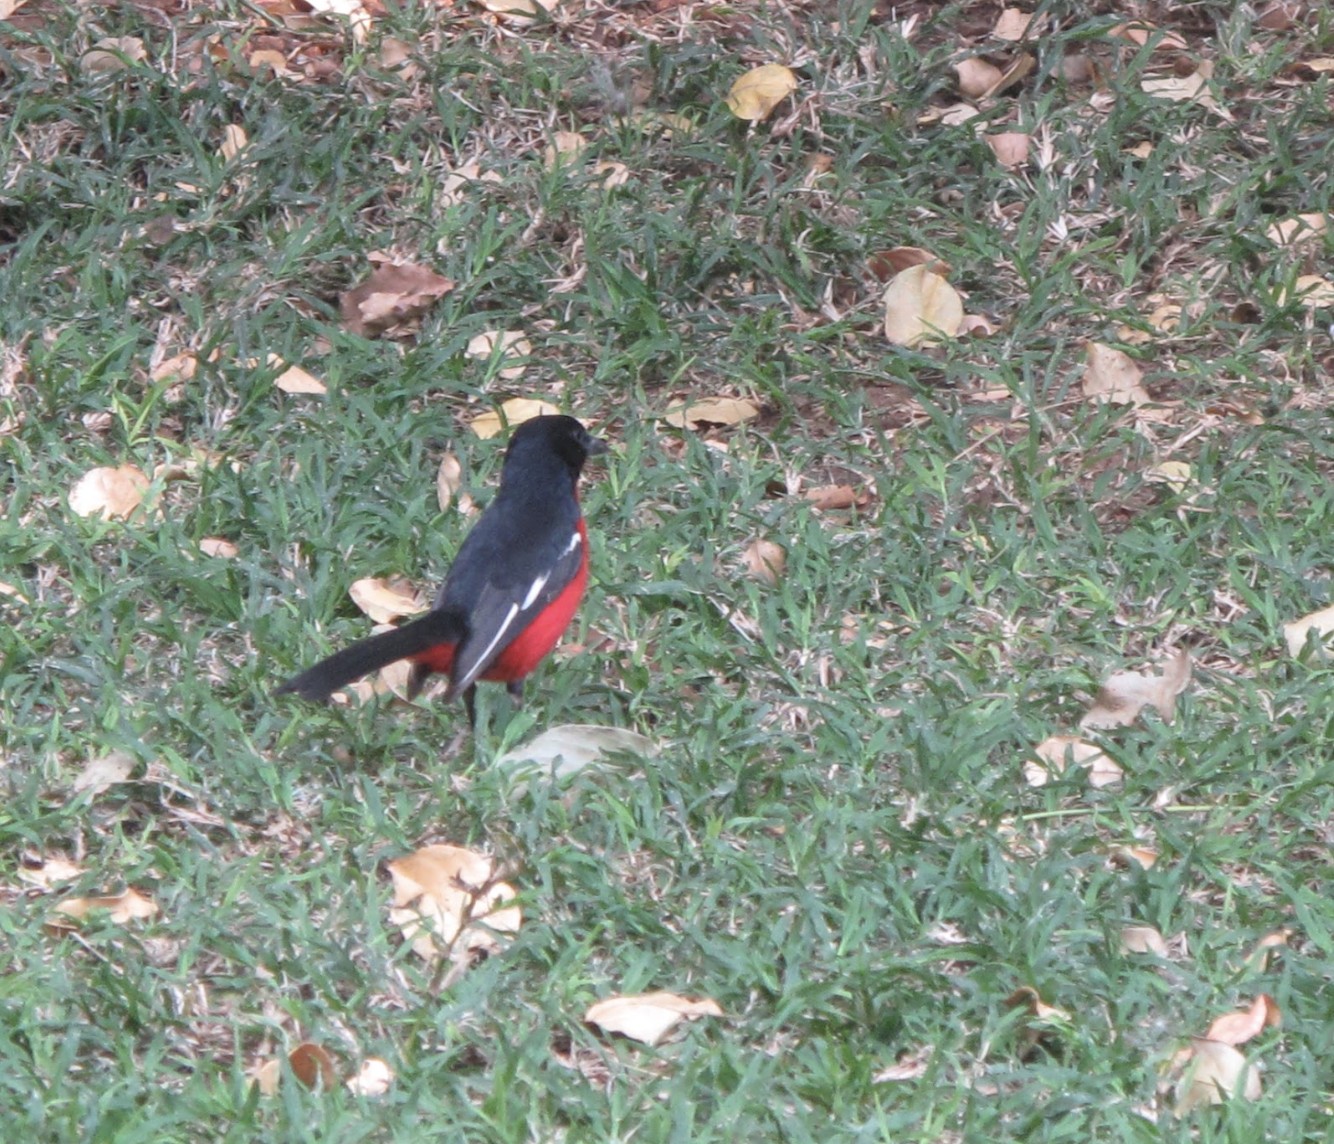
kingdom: Animalia
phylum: Chordata
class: Aves
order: Passeriformes
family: Malaconotidae
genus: Laniarius
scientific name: Laniarius atrococcineus
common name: Crimson-breasted shrike
